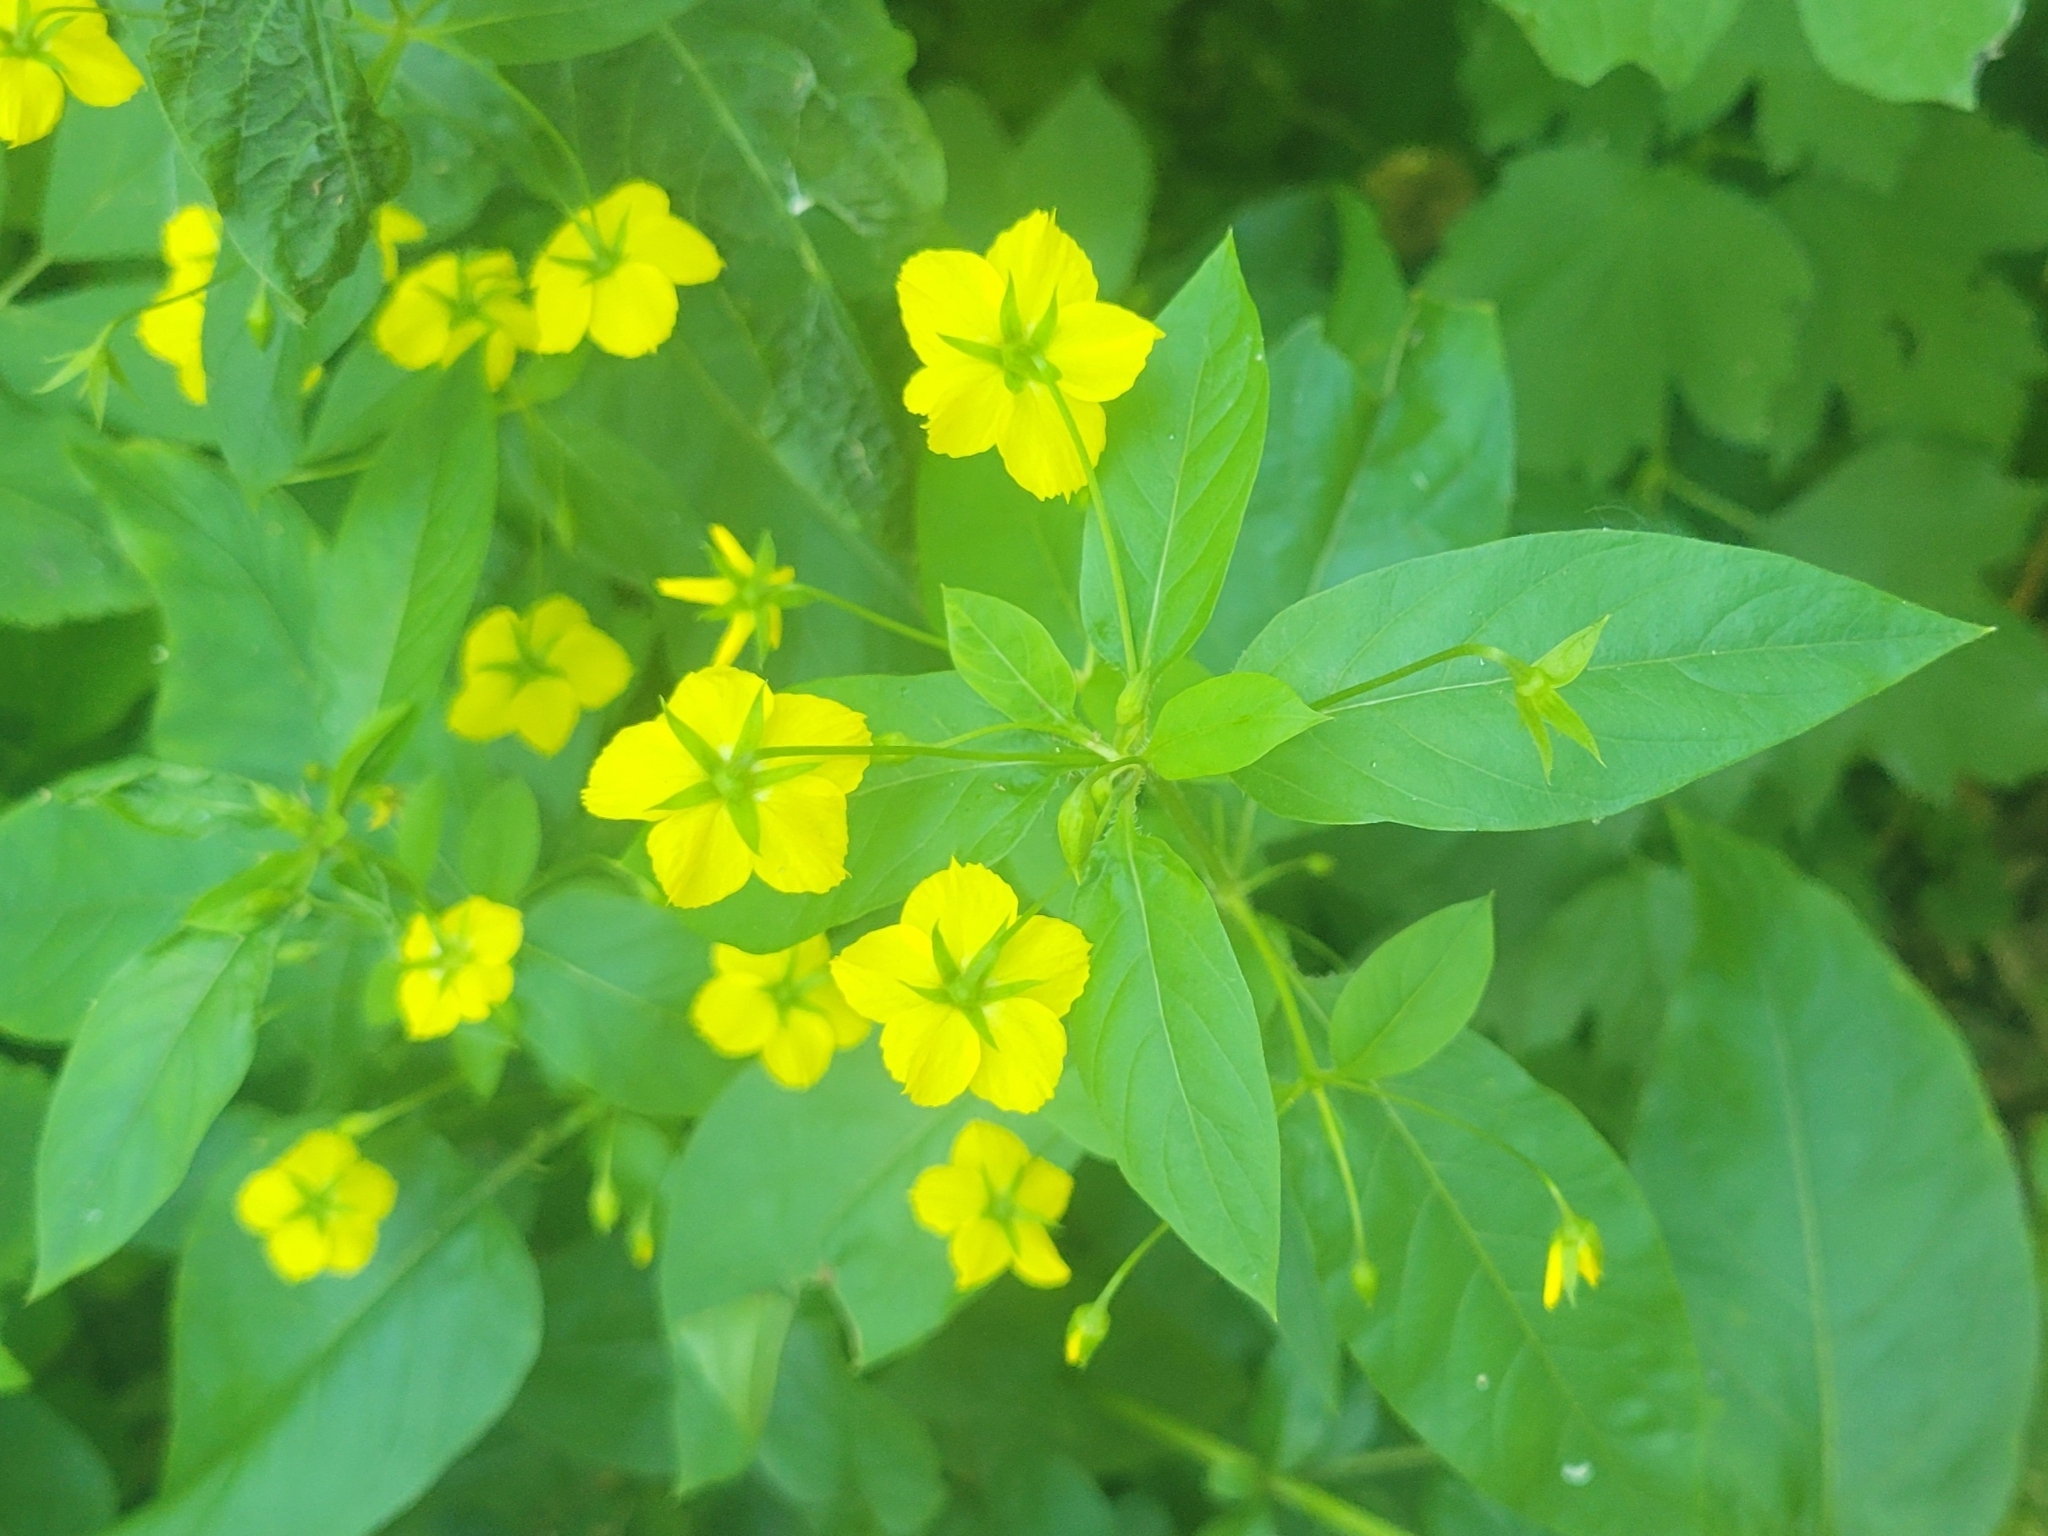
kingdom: Plantae
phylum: Tracheophyta
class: Magnoliopsida
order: Ericales
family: Primulaceae
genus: Lysimachia
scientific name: Lysimachia ciliata
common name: Fringed loosestrife
